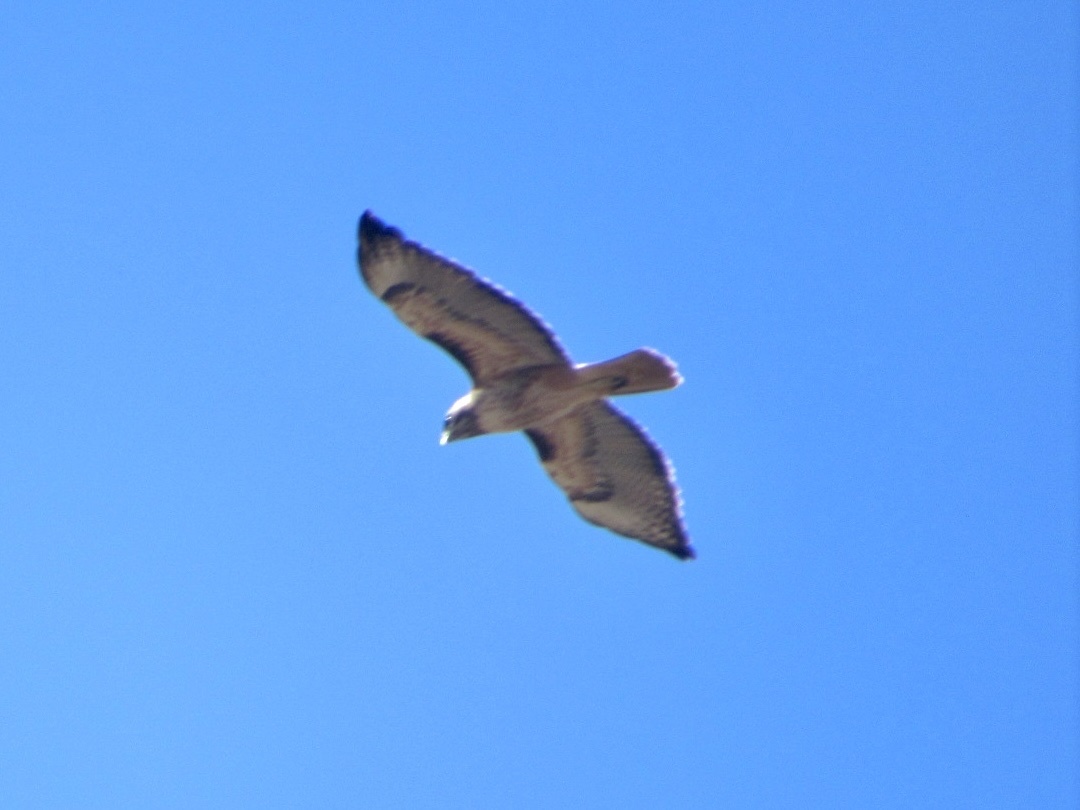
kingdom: Animalia
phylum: Chordata
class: Aves
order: Accipitriformes
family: Accipitridae
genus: Buteo
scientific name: Buteo jamaicensis
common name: Red-tailed hawk
